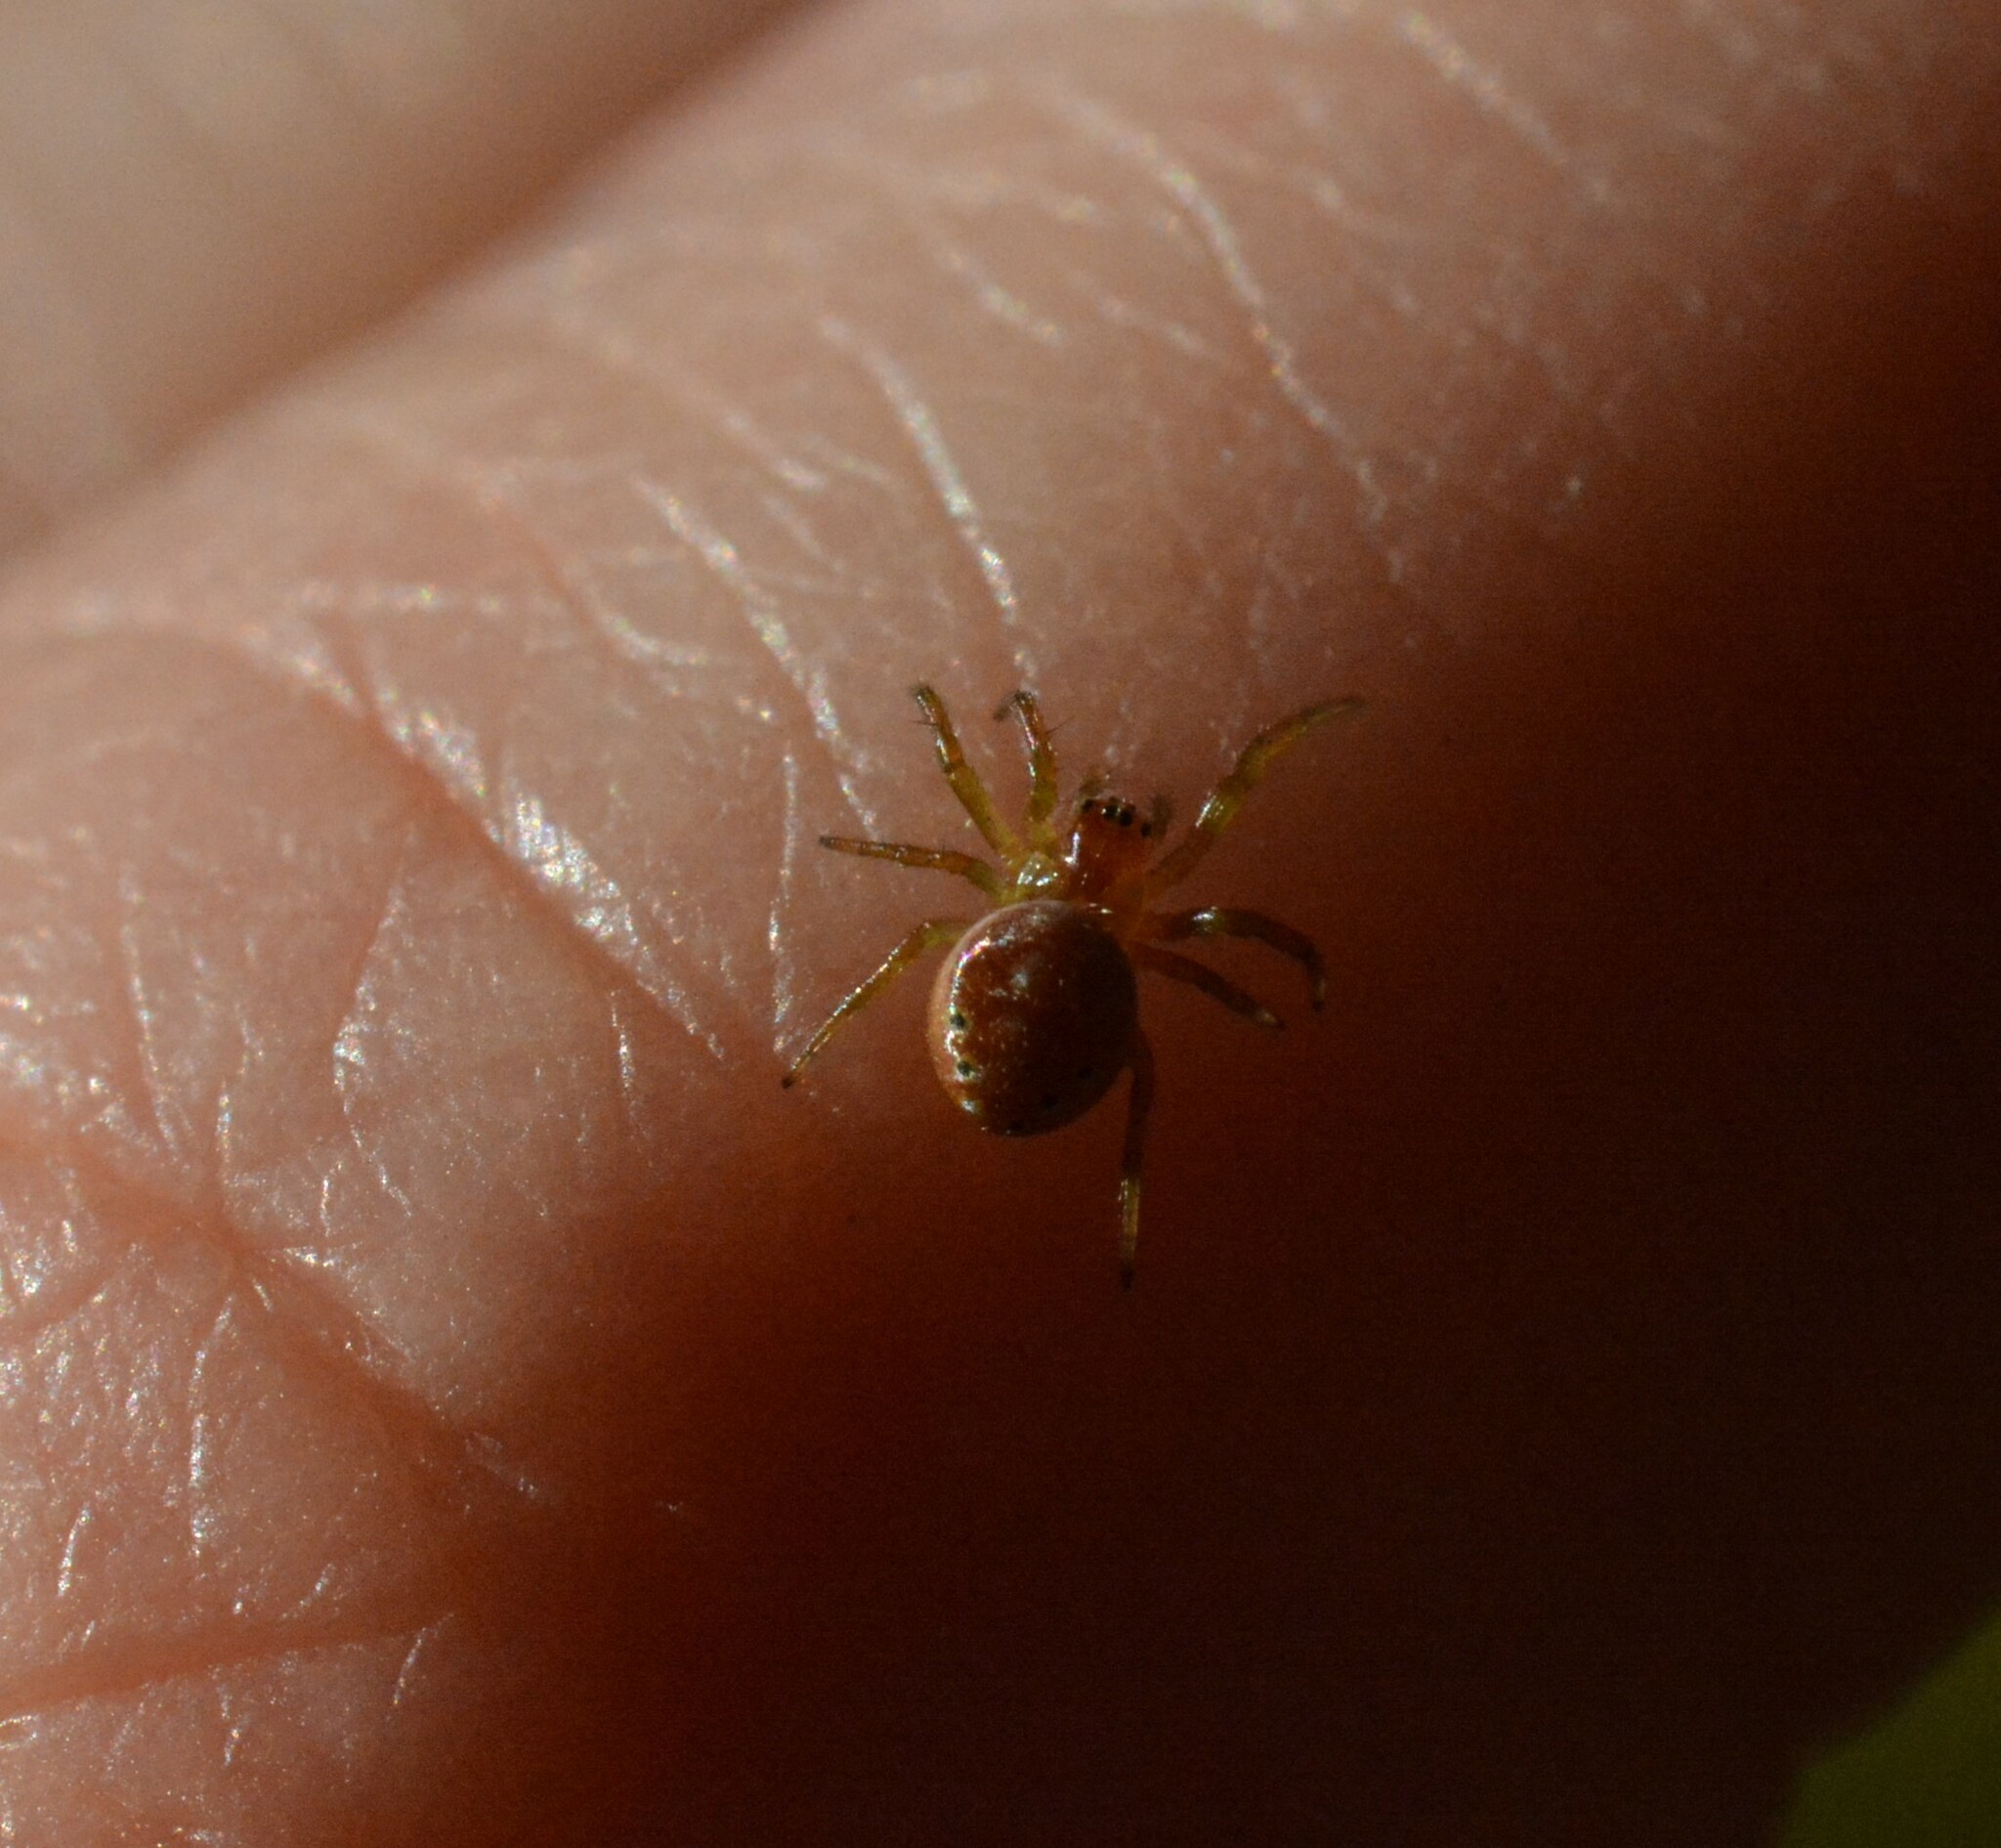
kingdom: Animalia
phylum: Arthropoda
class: Arachnida
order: Araneae
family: Araneidae
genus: Araniella
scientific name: Araniella displicata
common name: Sixspotted orb weaver
